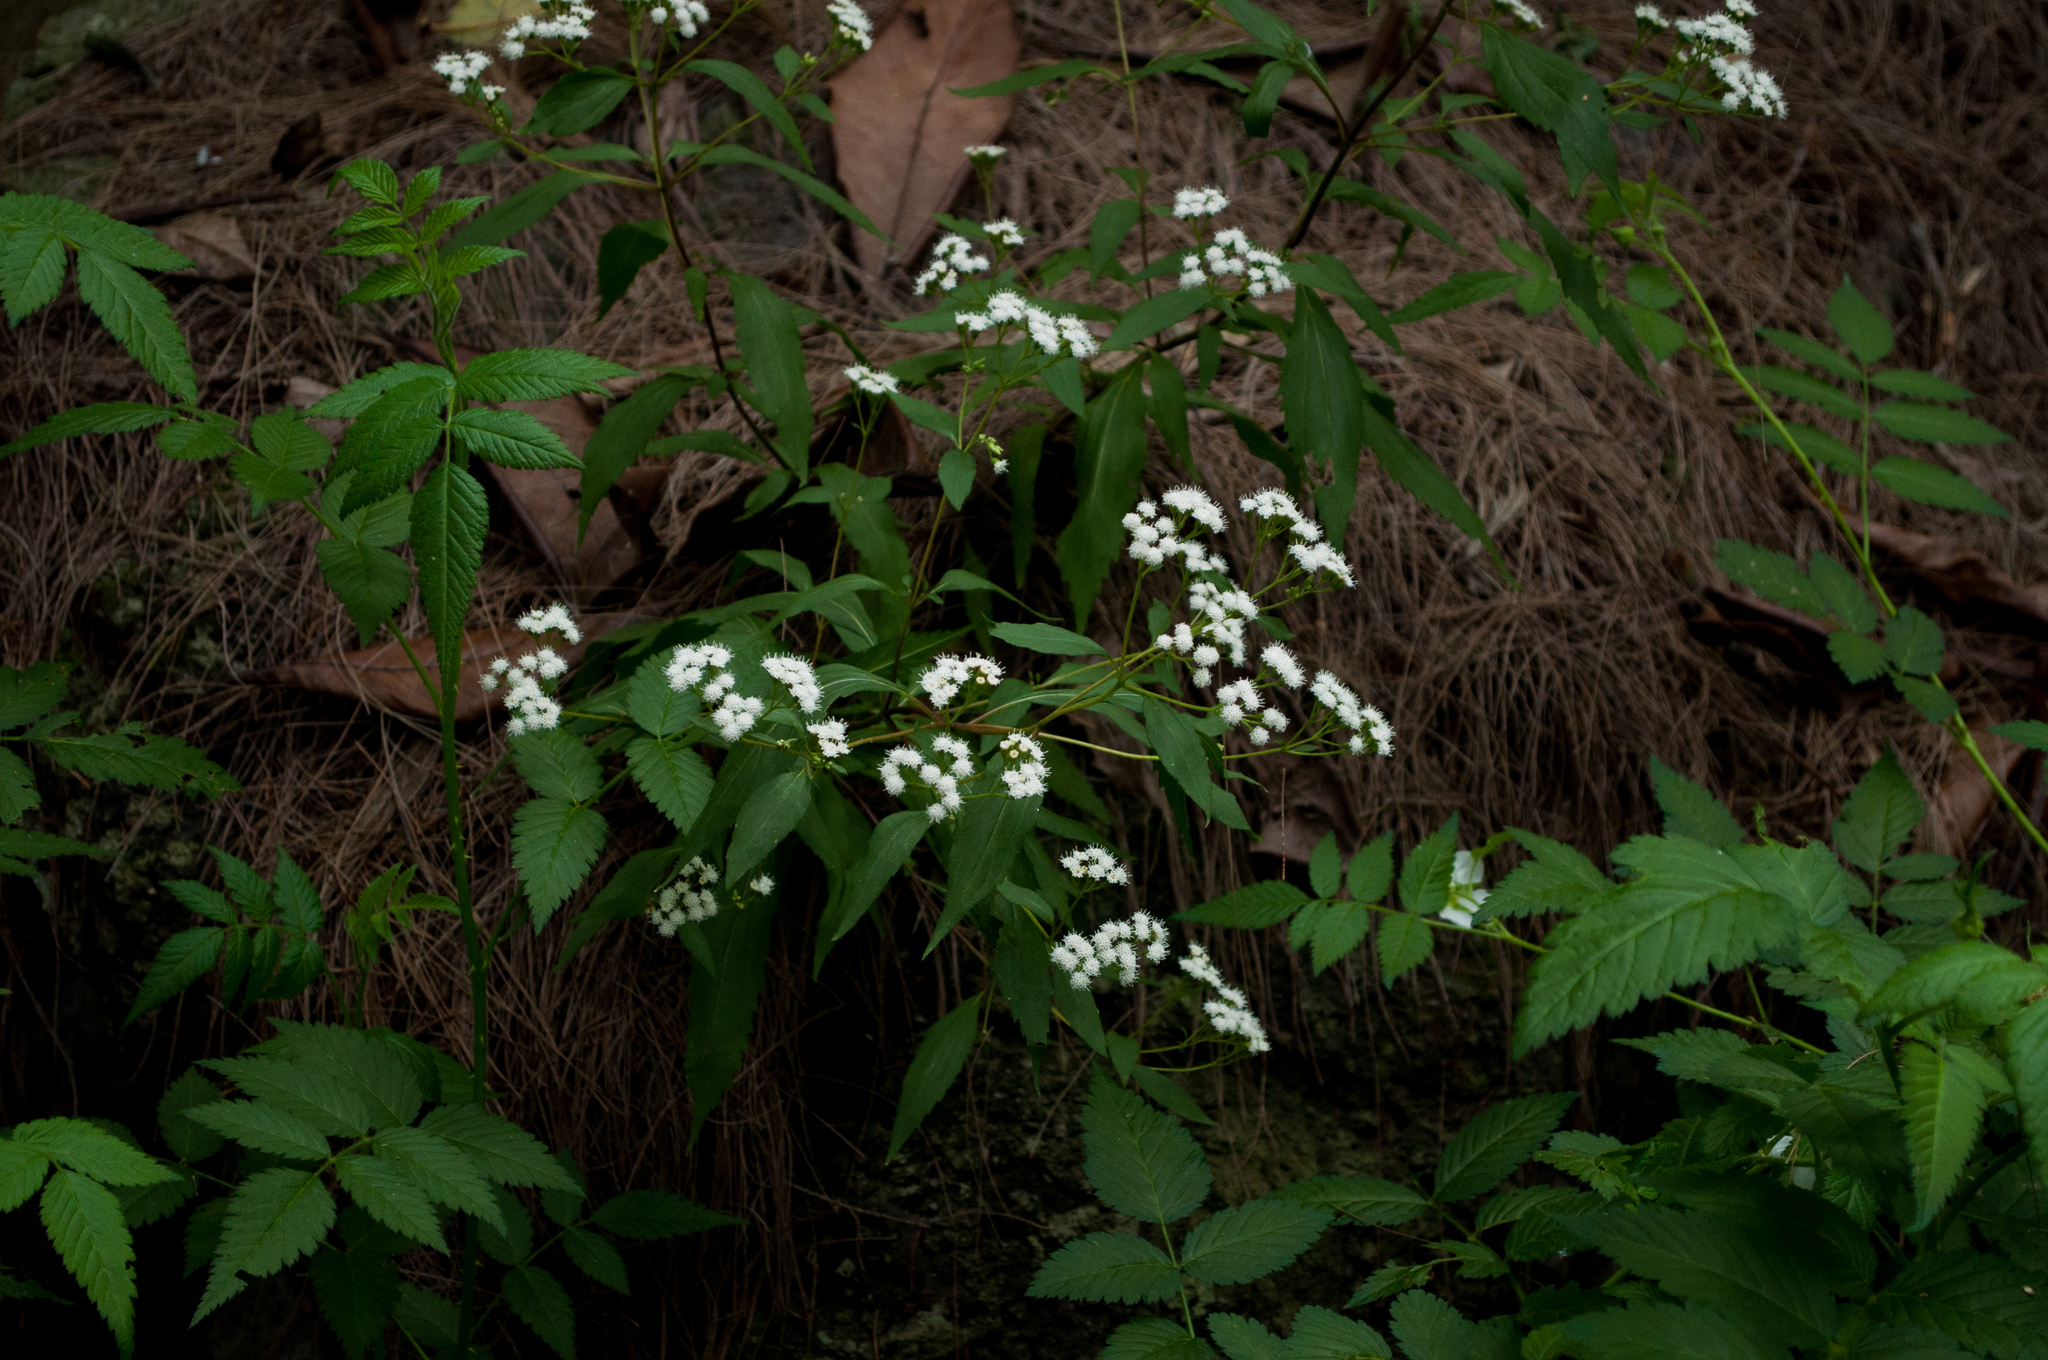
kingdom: Plantae
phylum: Tracheophyta
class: Magnoliopsida
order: Asterales
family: Asteraceae
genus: Ageratina
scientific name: Ageratina riparia
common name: Creeping croftonweed
